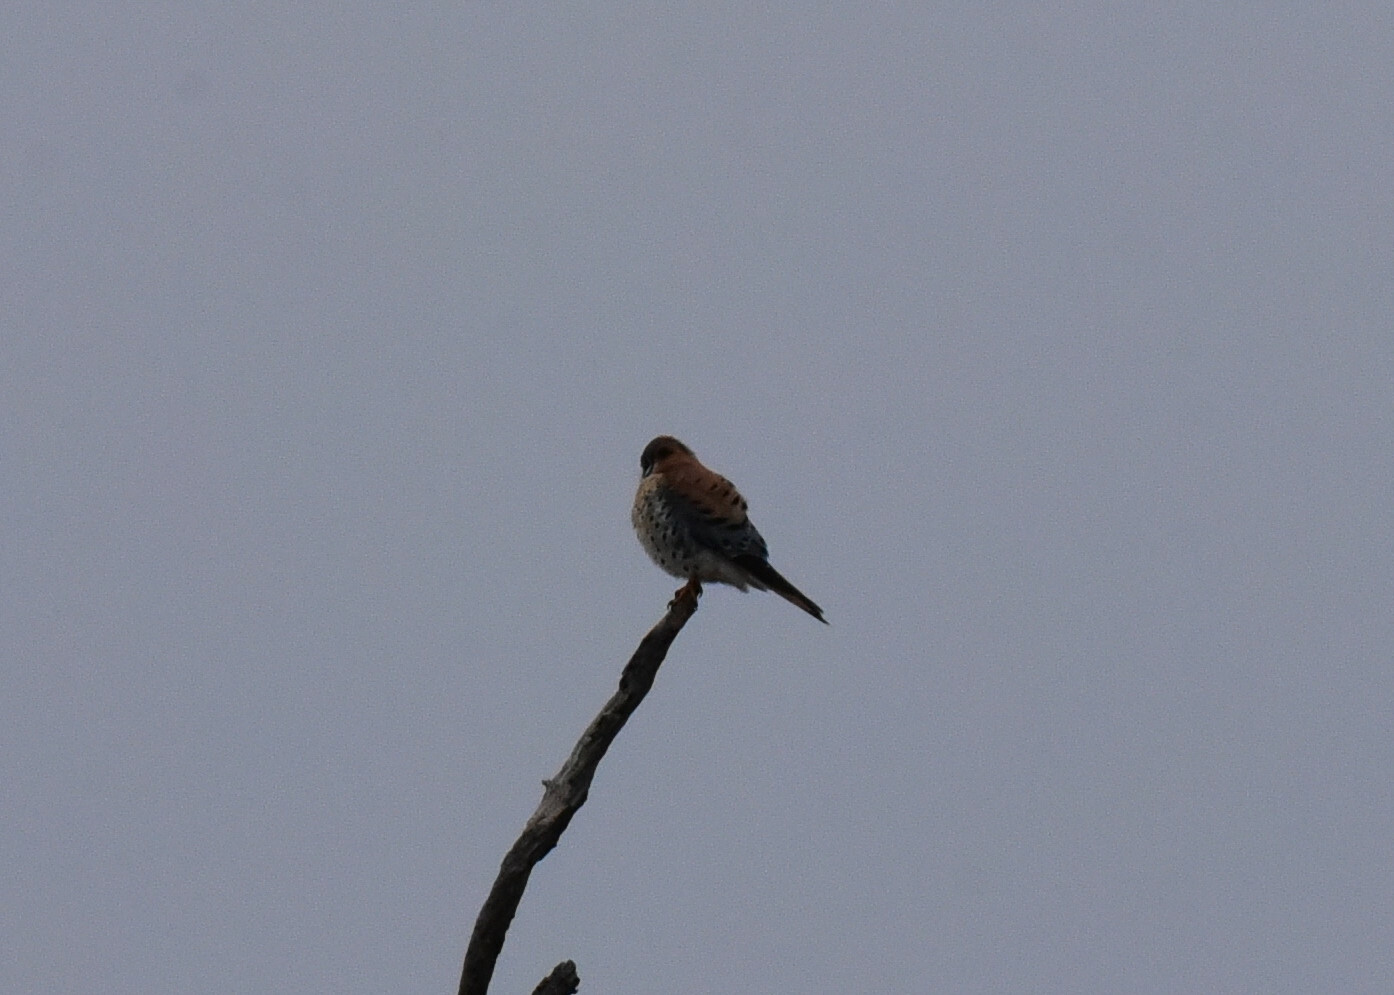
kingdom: Animalia
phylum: Chordata
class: Aves
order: Falconiformes
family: Falconidae
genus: Falco
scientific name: Falco sparverius
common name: American kestrel
